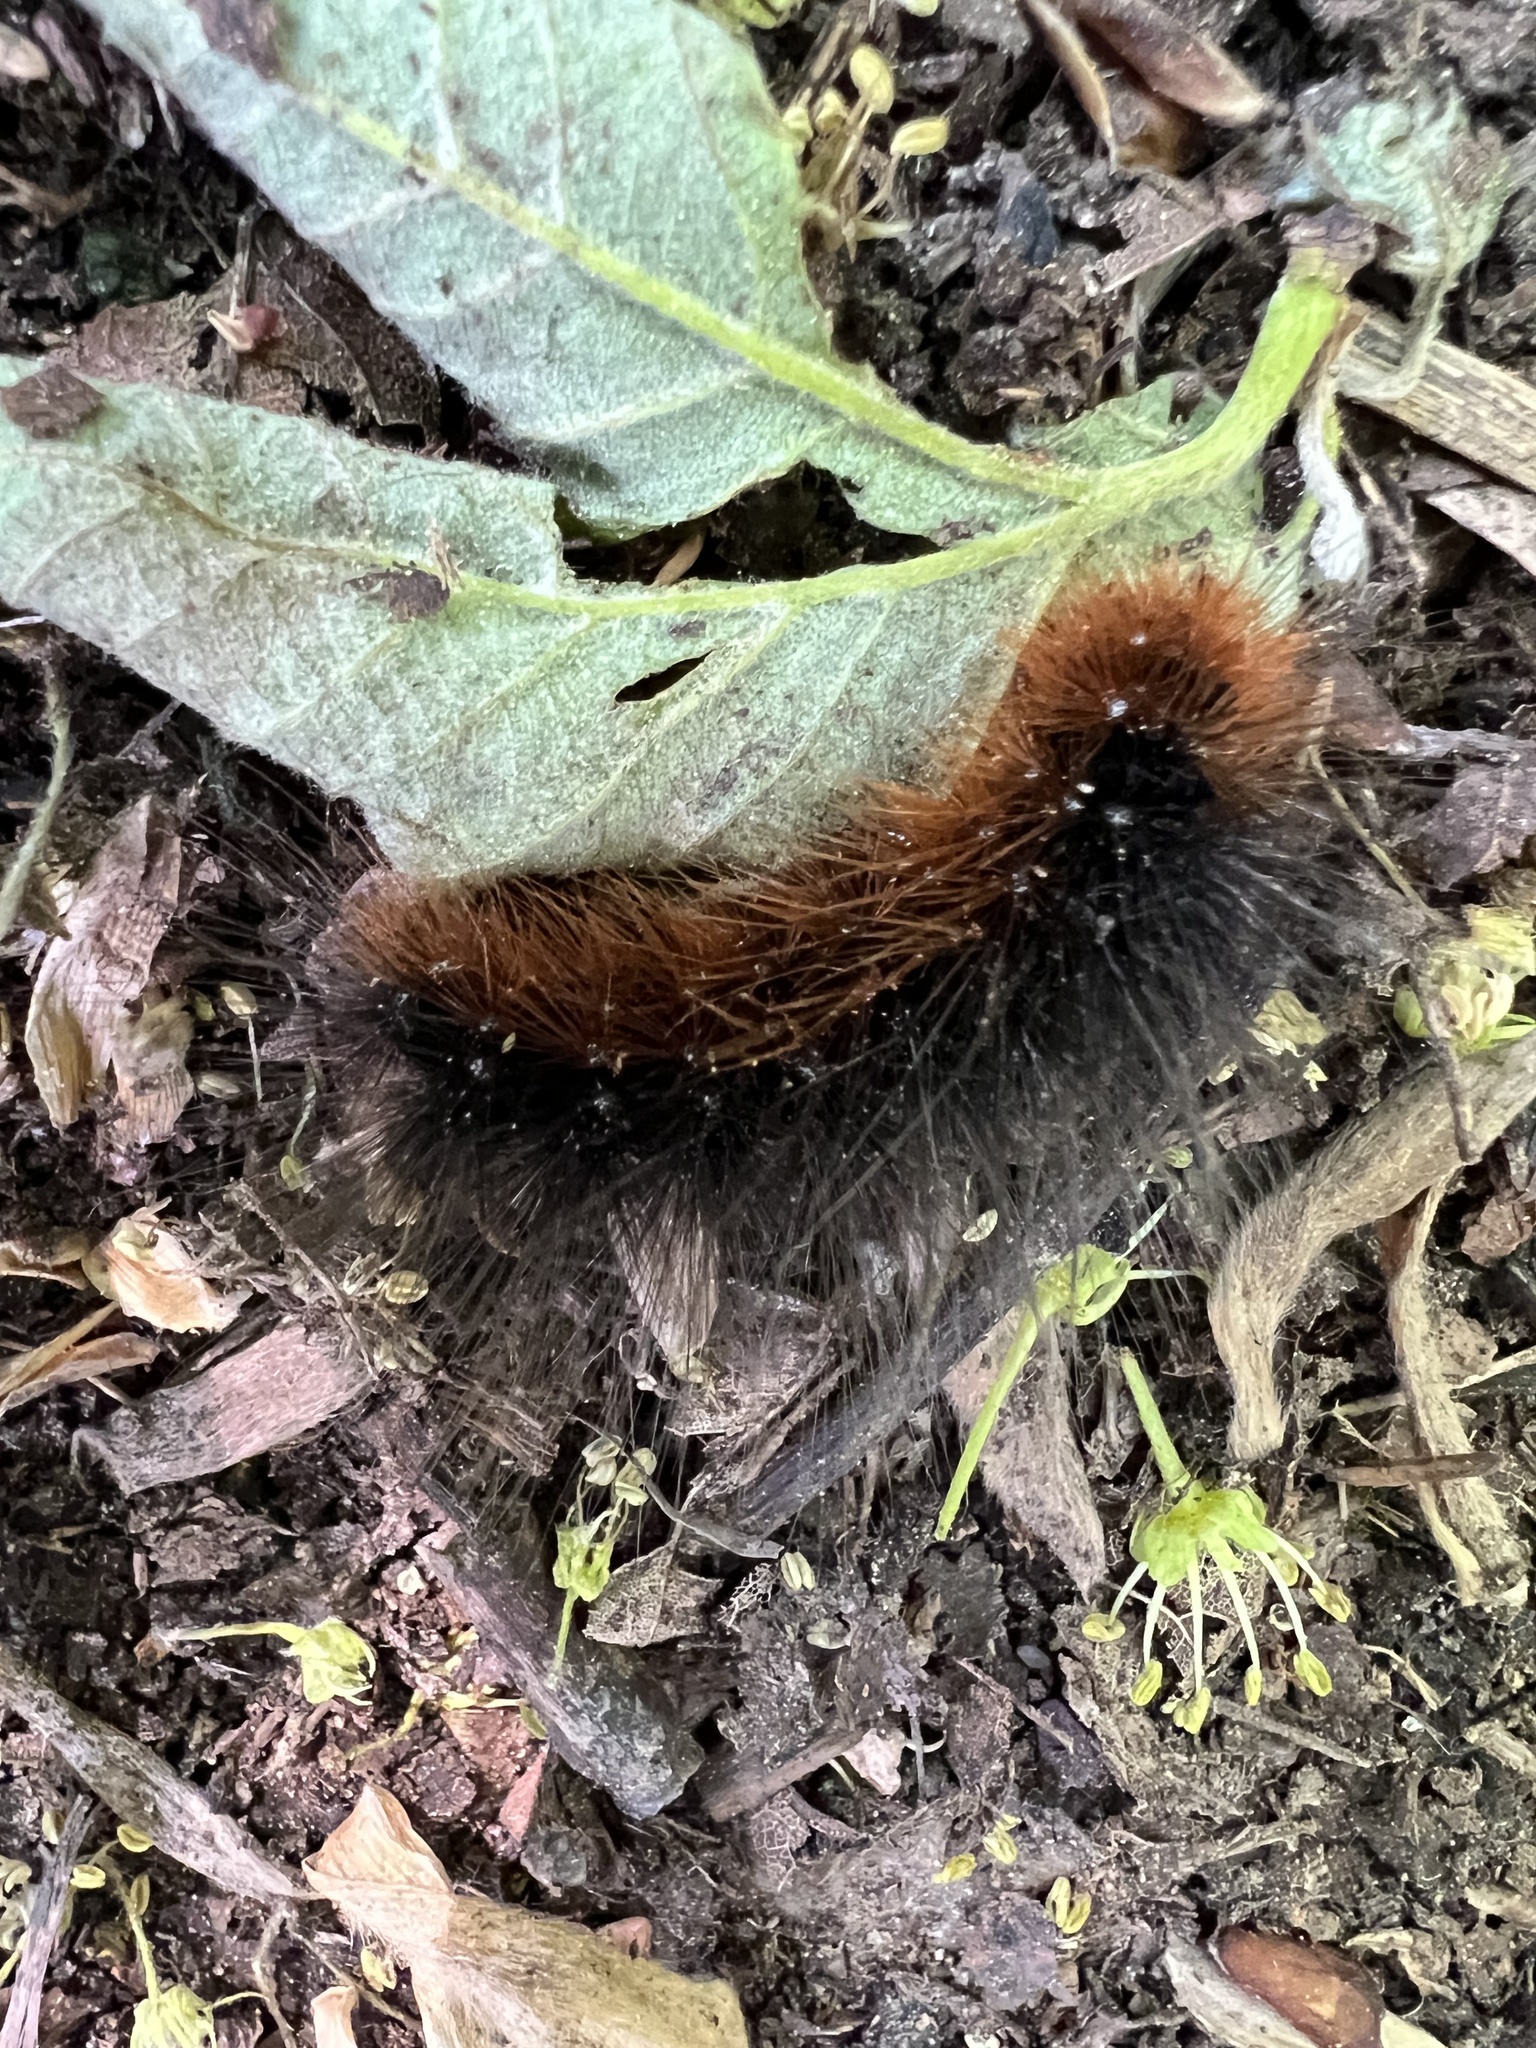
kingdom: Animalia
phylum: Arthropoda
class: Insecta
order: Lepidoptera
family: Erebidae
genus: Arctia
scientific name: Arctia caja
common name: Garden tiger
